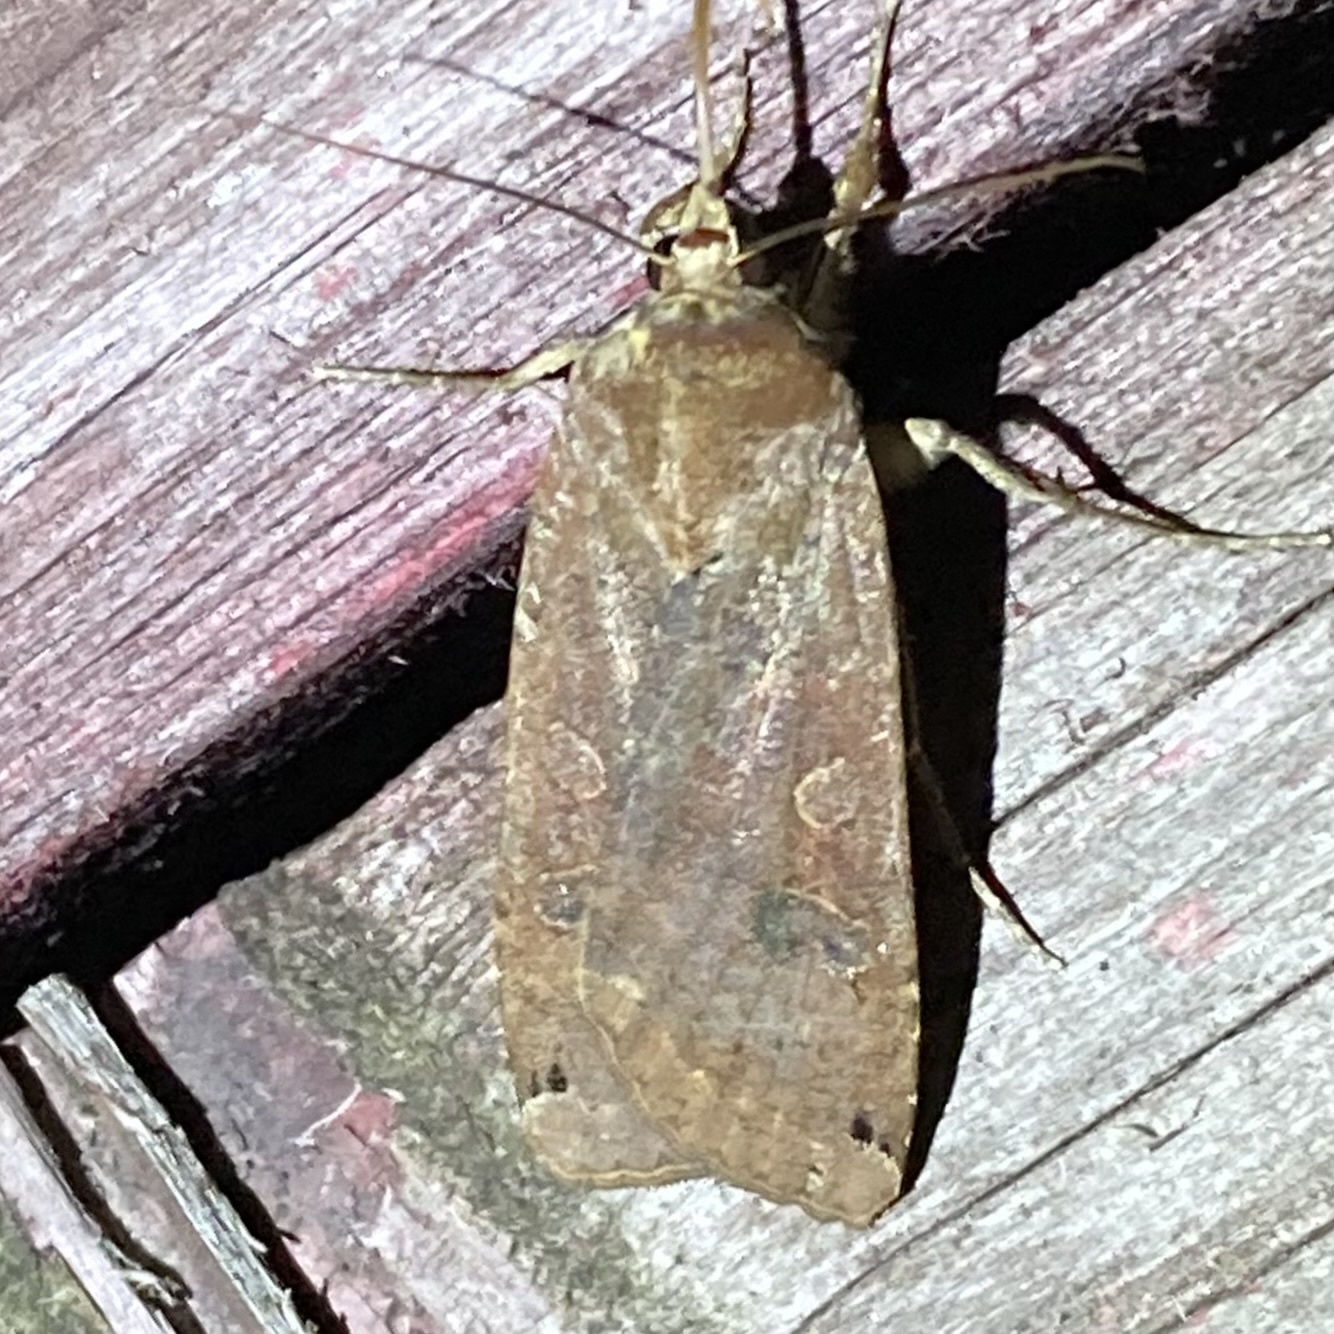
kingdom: Animalia
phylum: Arthropoda
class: Insecta
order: Lepidoptera
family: Noctuidae
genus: Noctua
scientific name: Noctua pronuba
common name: Large yellow underwing
